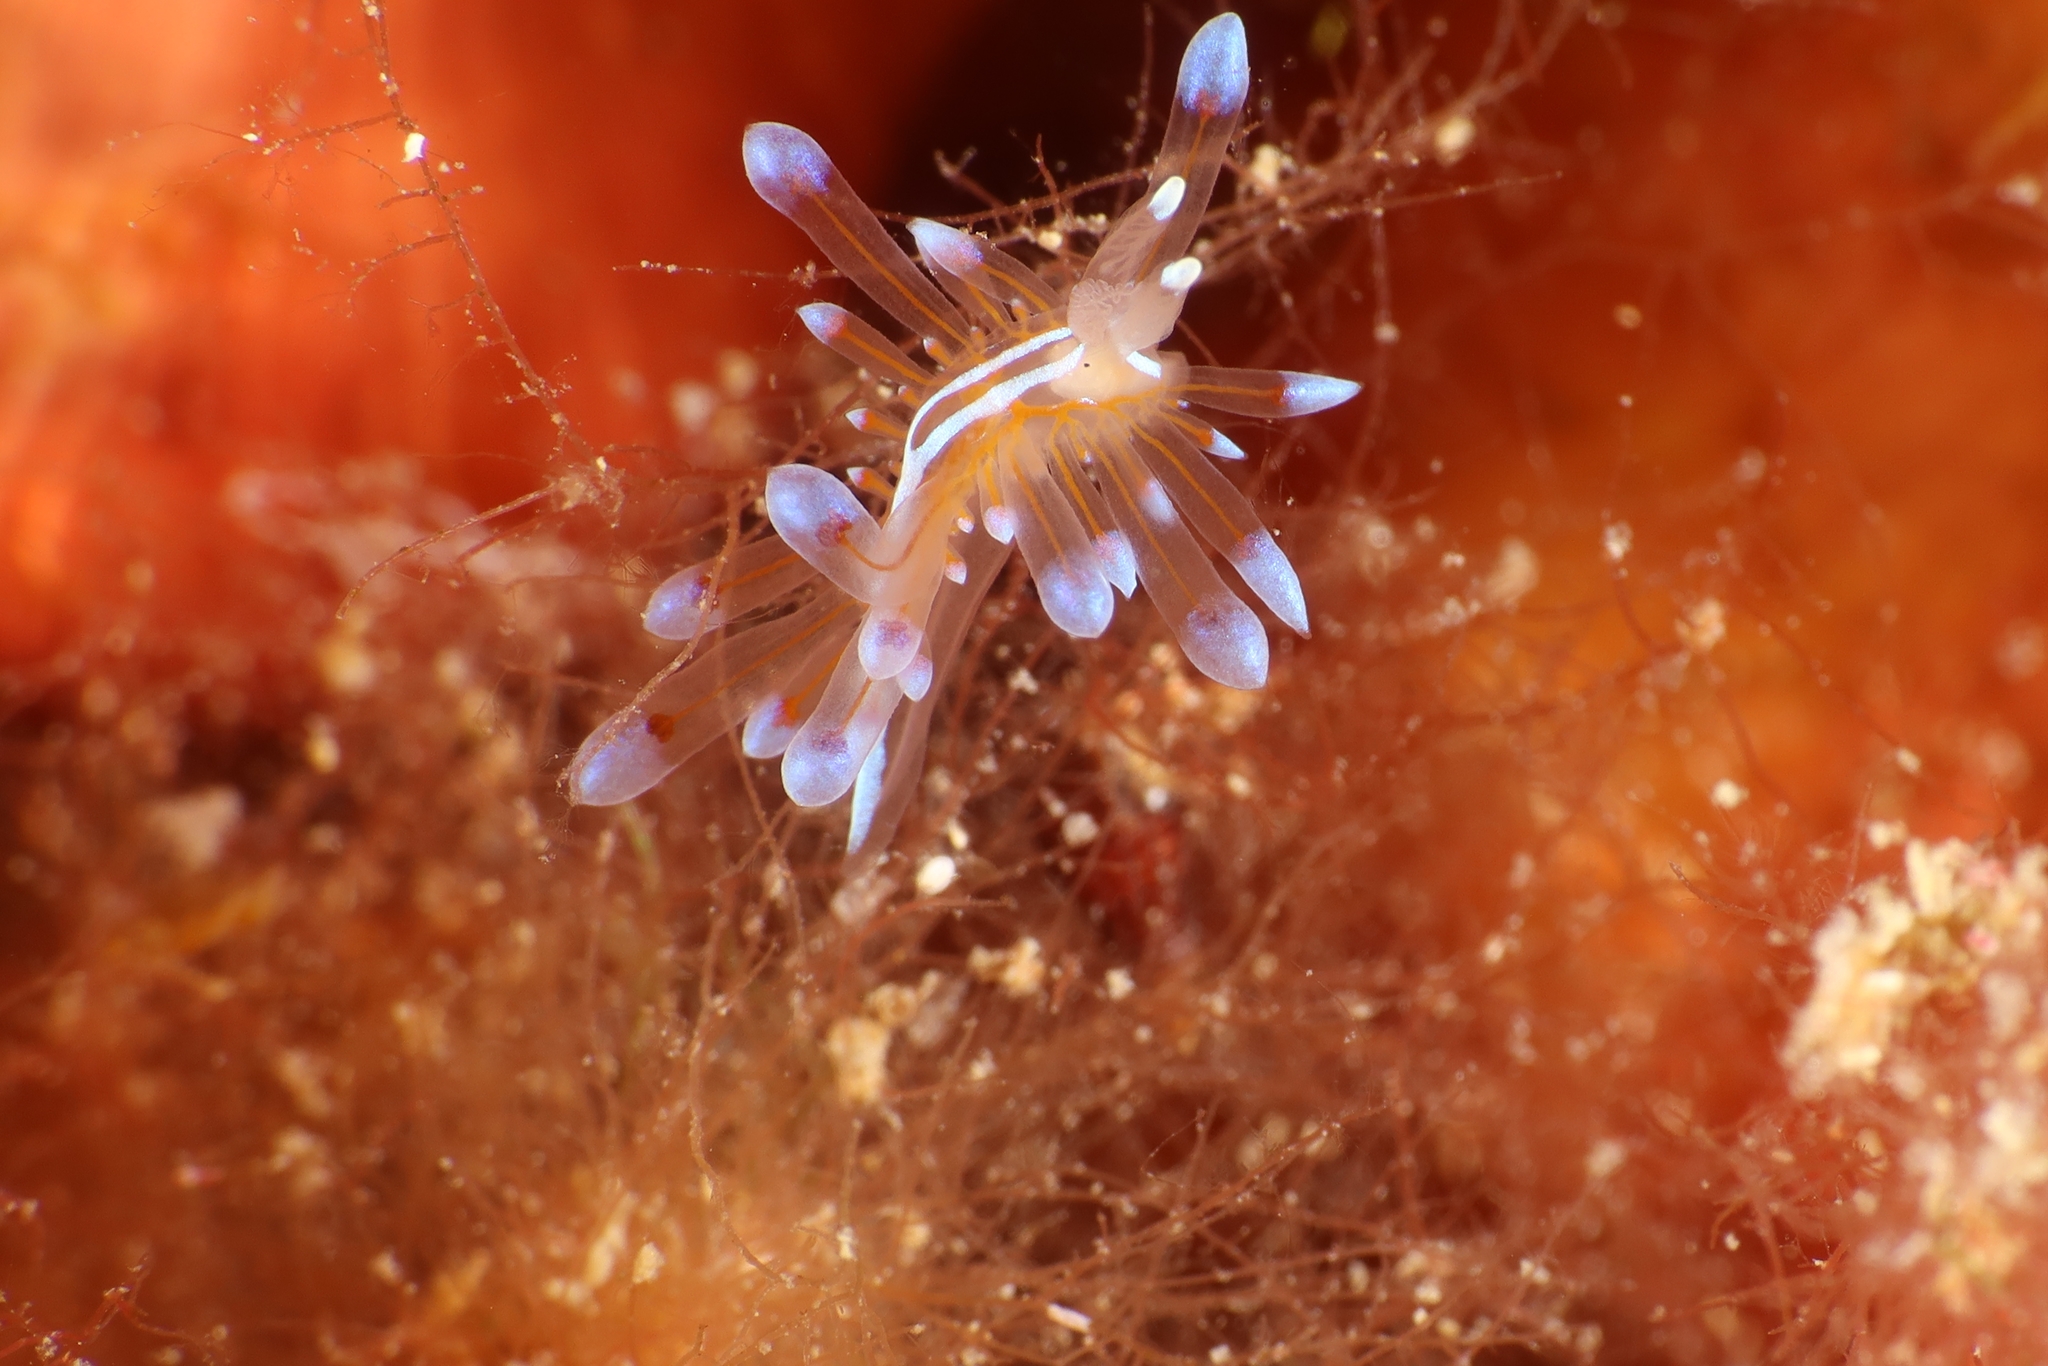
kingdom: Animalia
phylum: Mollusca
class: Gastropoda
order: Nudibranchia
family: Janolidae
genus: Antiopella
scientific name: Antiopella cristata
